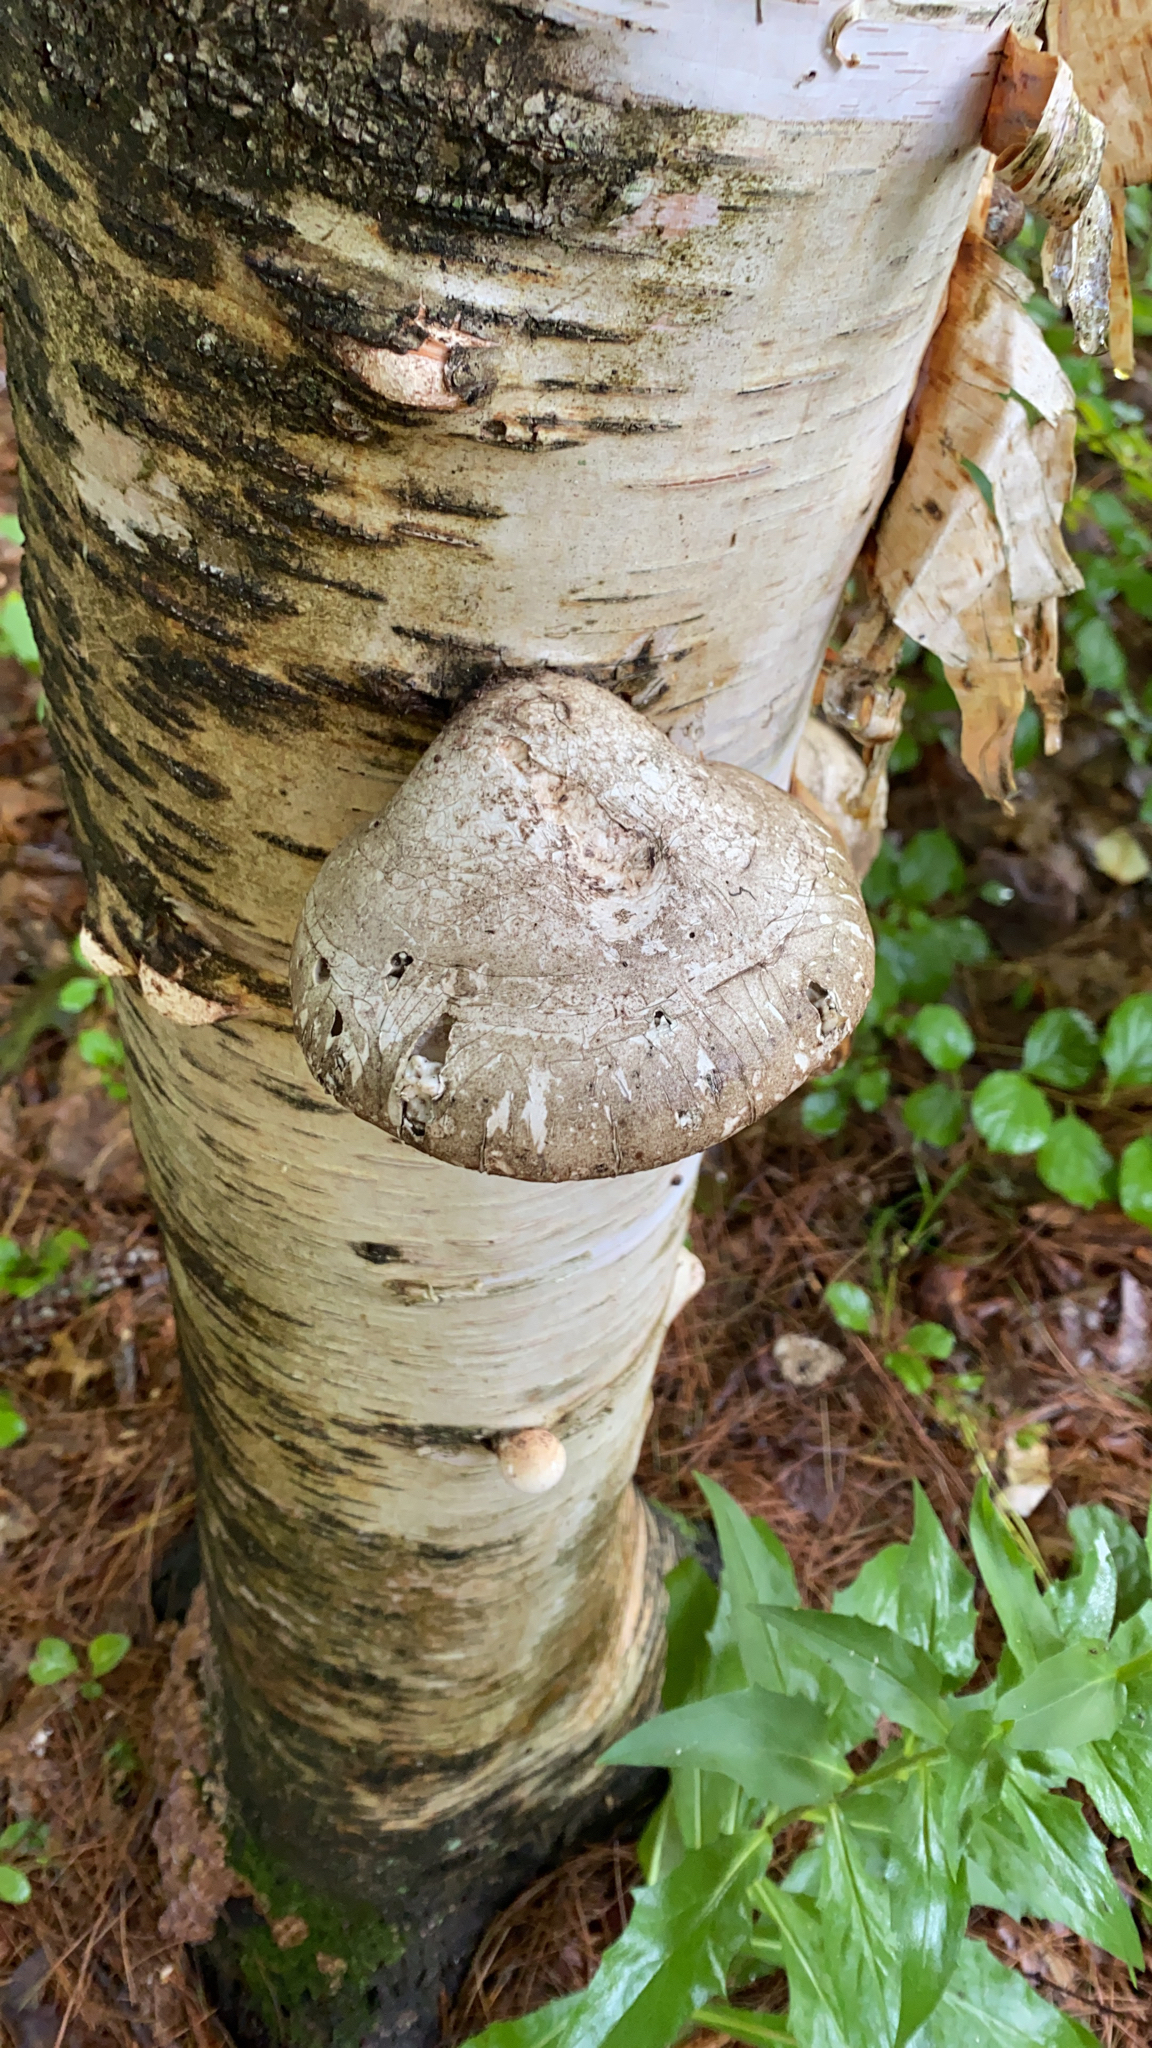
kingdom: Fungi
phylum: Basidiomycota
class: Agaricomycetes
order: Polyporales
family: Fomitopsidaceae
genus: Fomitopsis
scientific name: Fomitopsis betulina
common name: Birch polypore
